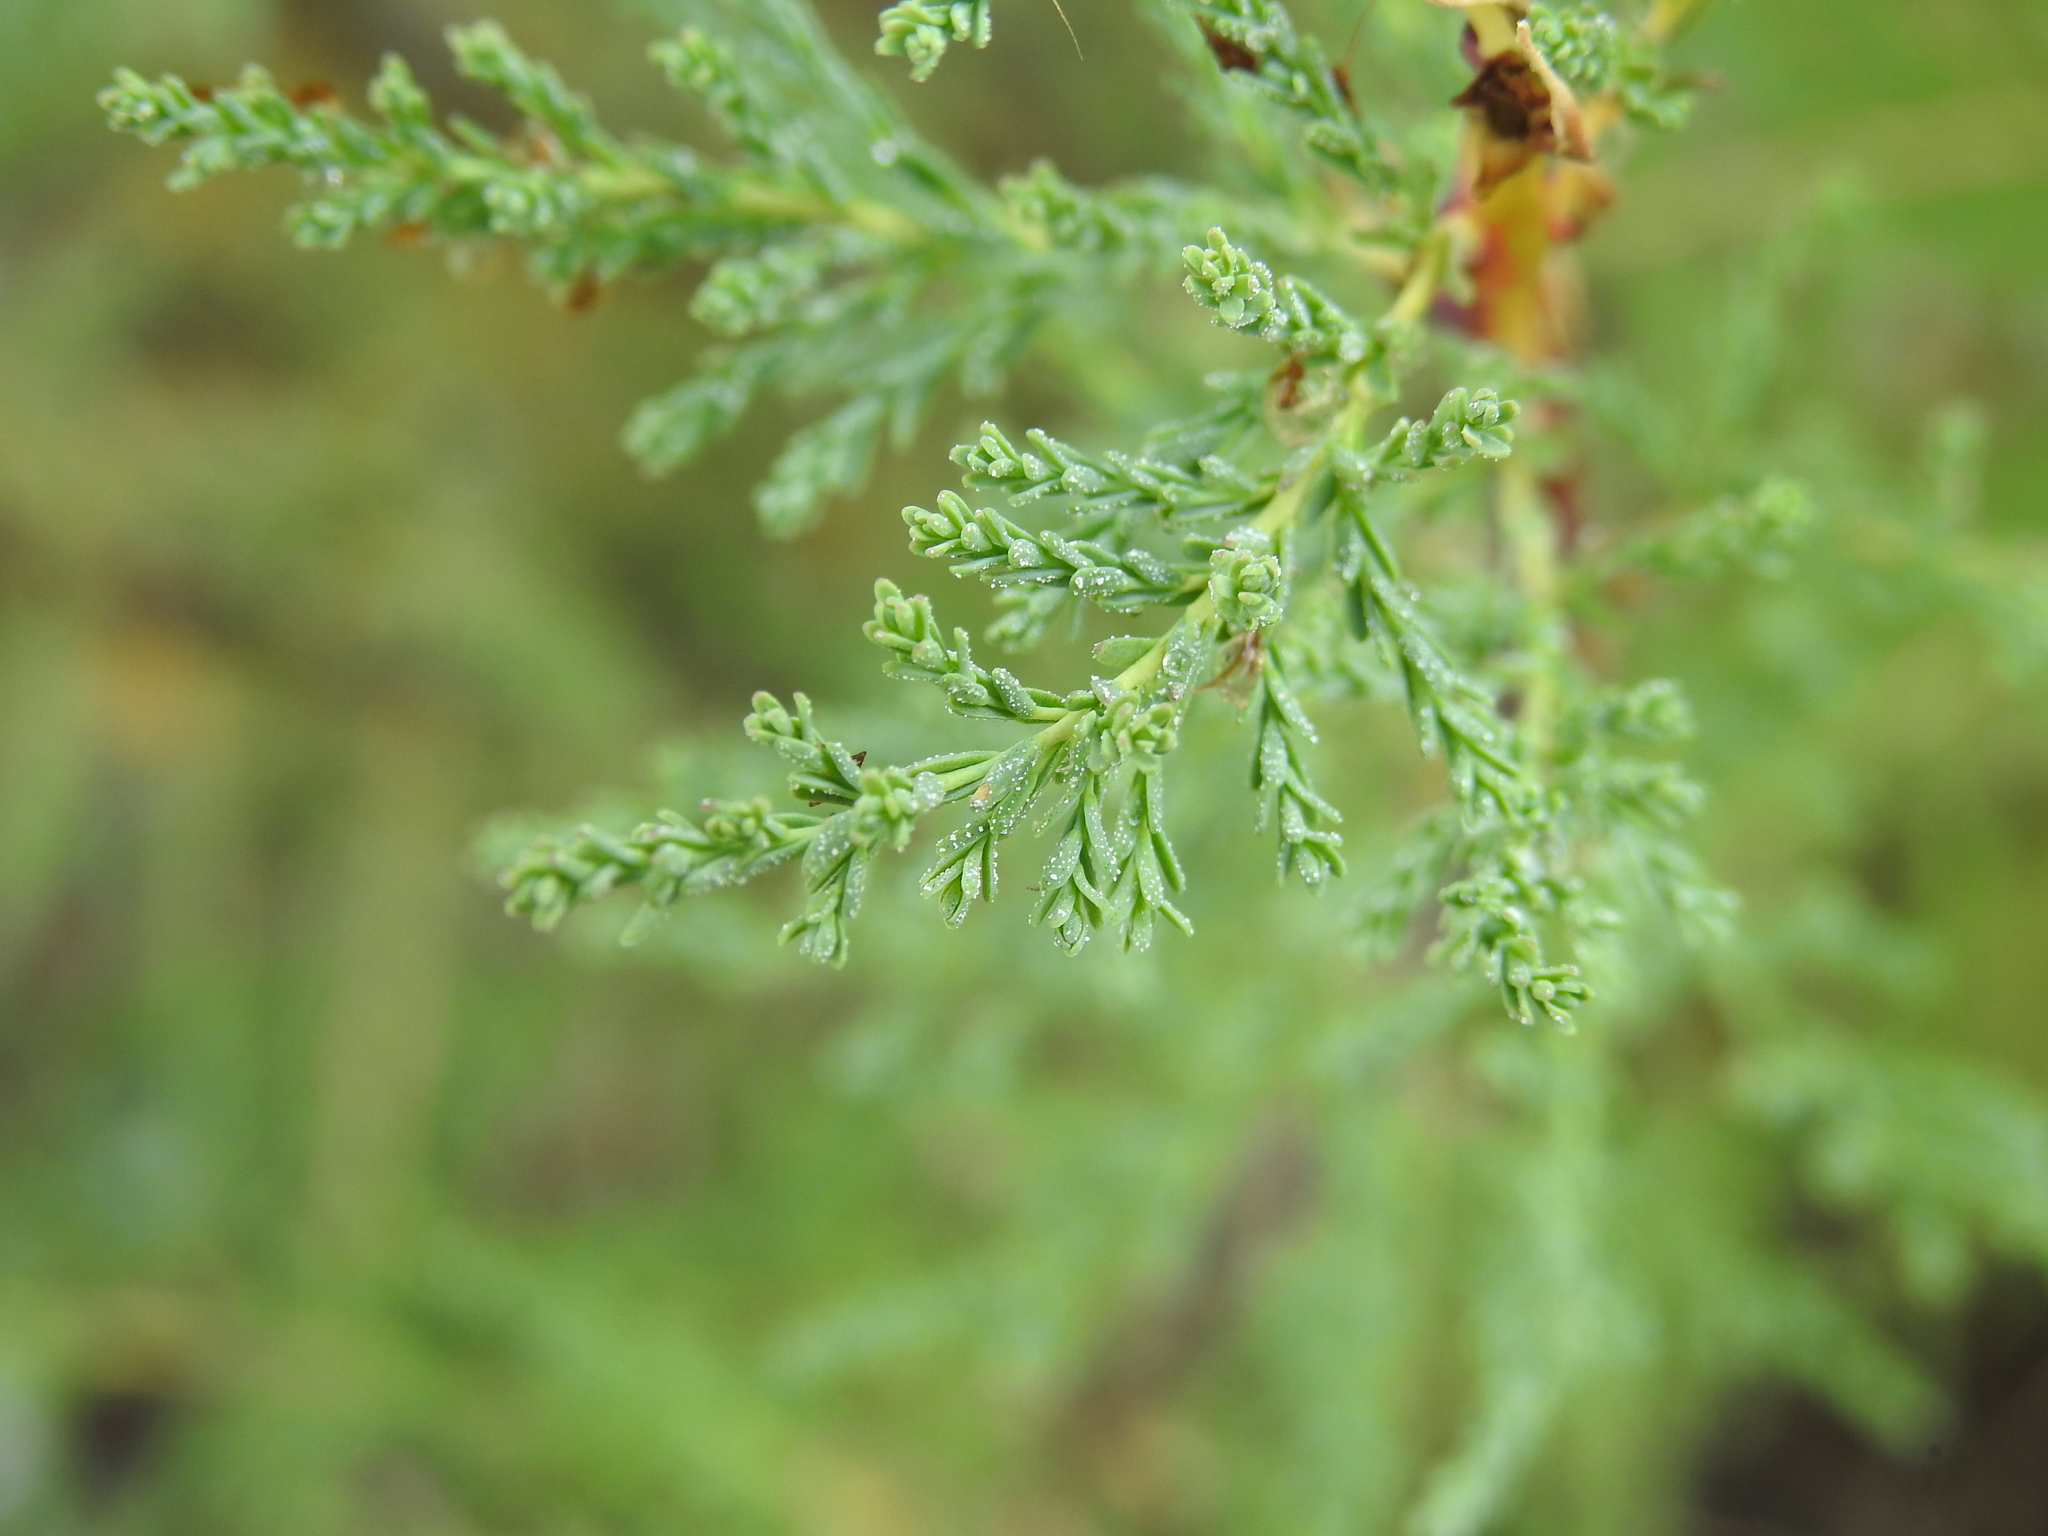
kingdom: Plantae
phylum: Tracheophyta
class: Magnoliopsida
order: Caryophyllales
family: Tamaricaceae
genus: Myricaria
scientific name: Myricaria germanica
